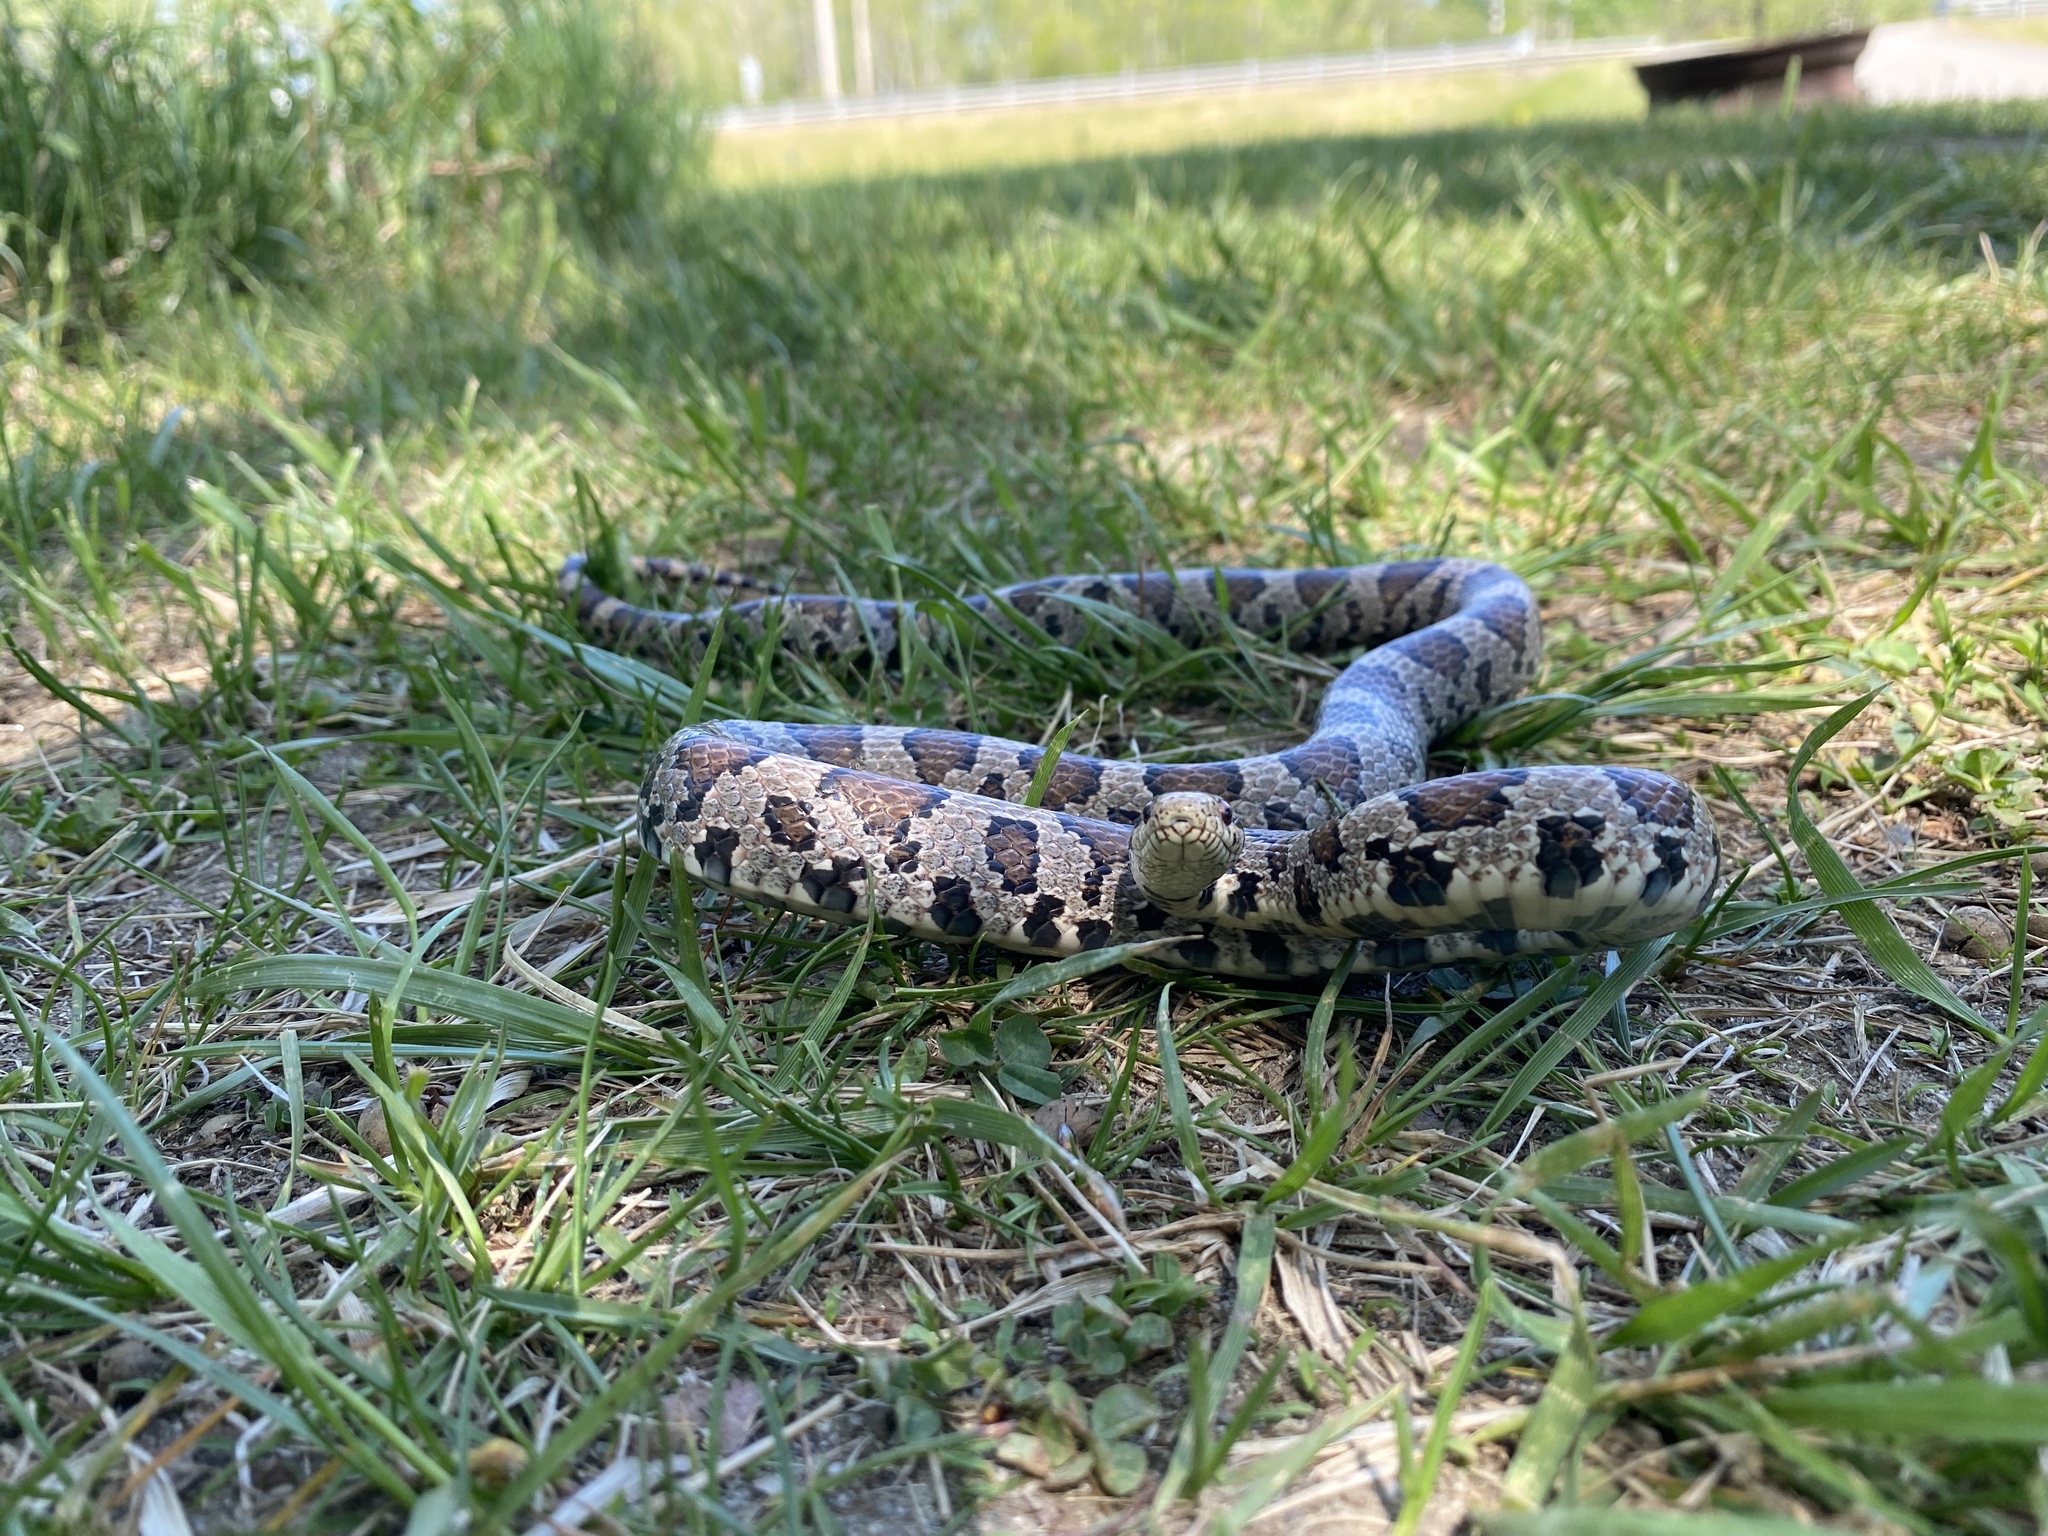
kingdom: Animalia
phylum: Chordata
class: Squamata
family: Colubridae
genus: Lampropeltis
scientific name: Lampropeltis triangulum
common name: Eastern milksnake
